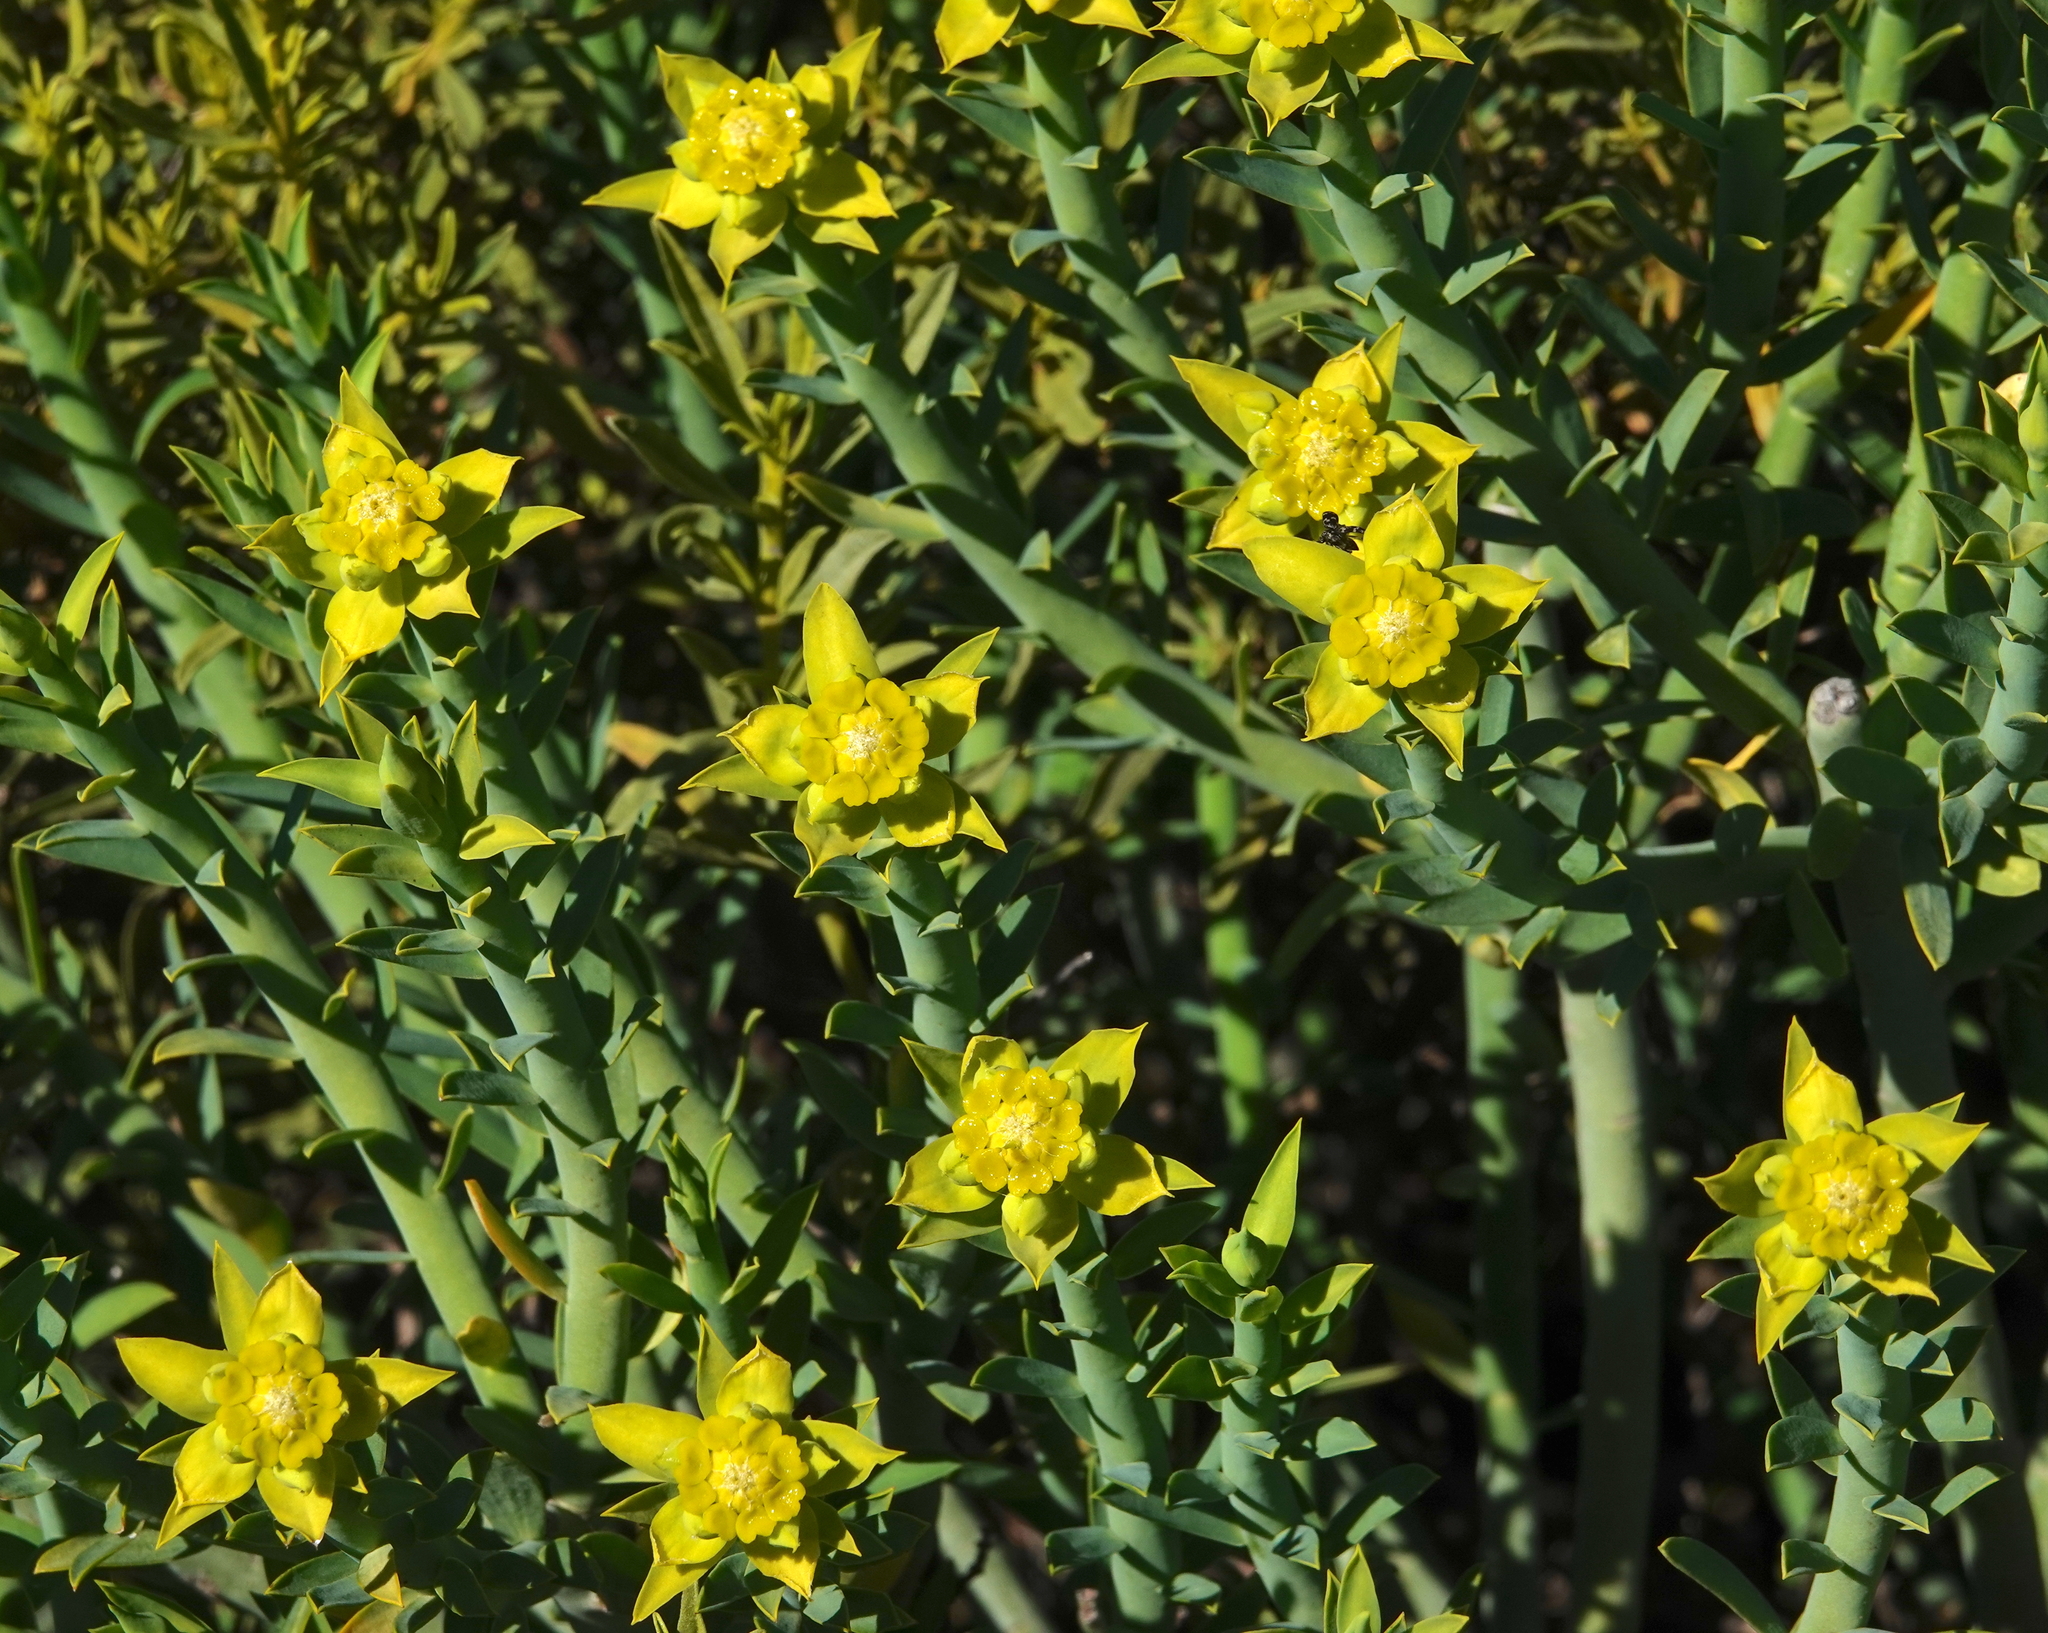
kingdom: Plantae
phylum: Tracheophyta
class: Magnoliopsida
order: Malpighiales
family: Euphorbiaceae
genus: Euphorbia
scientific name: Euphorbia mauritanica
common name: Jackal's-food
